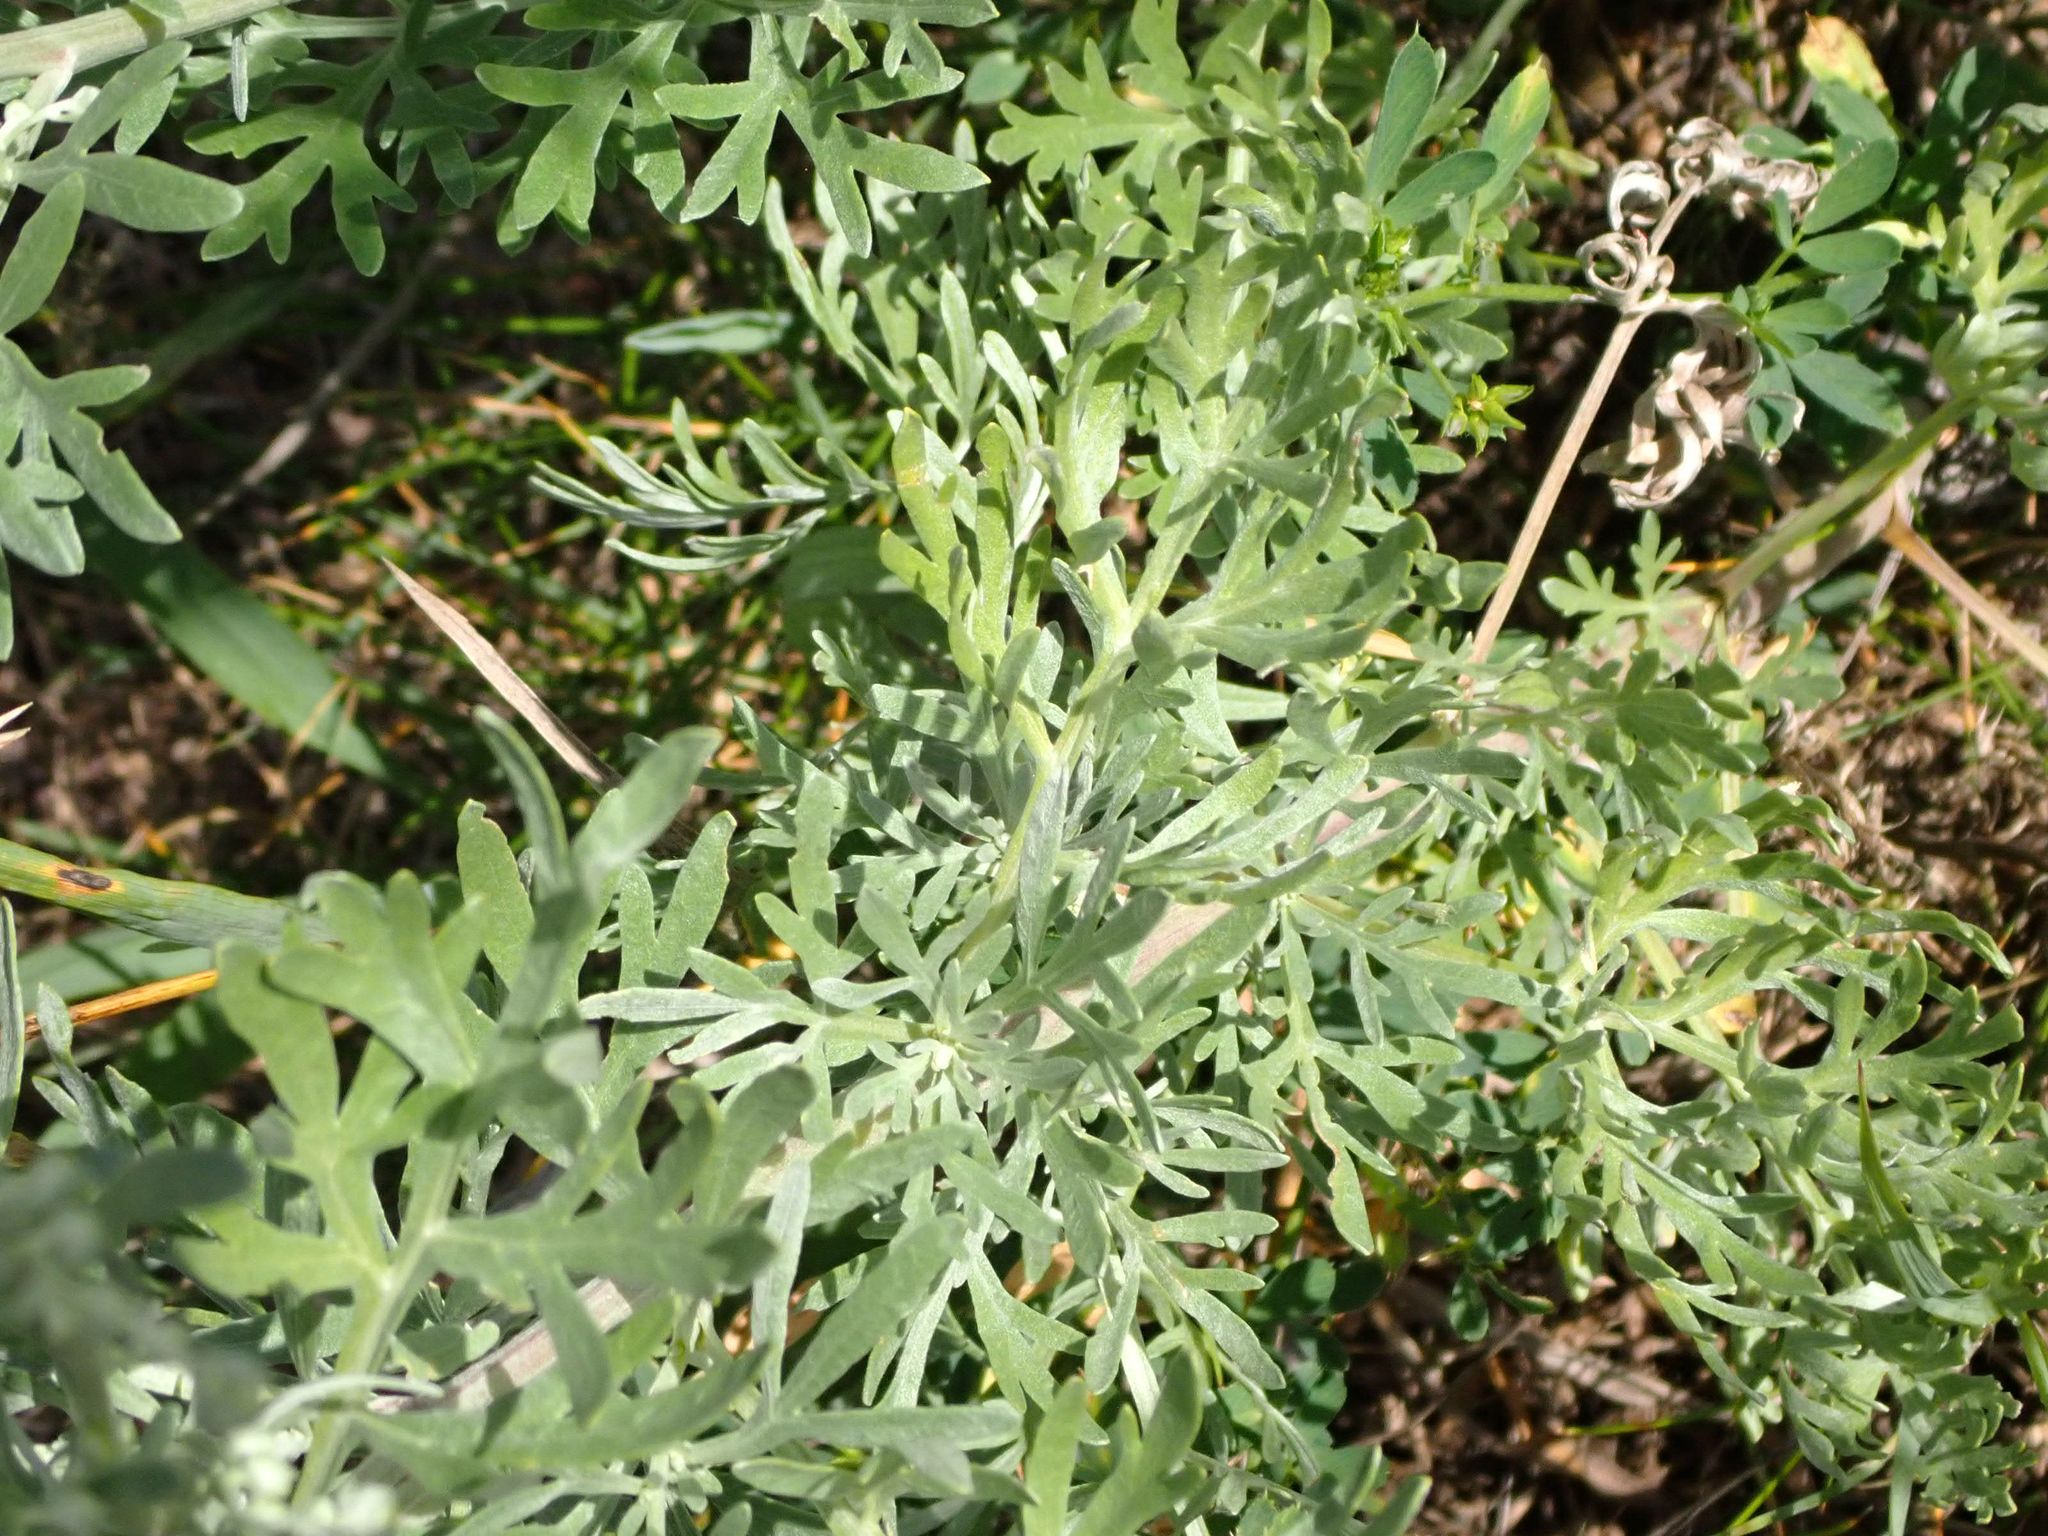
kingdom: Plantae
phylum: Tracheophyta
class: Magnoliopsida
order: Asterales
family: Asteraceae
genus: Artemisia
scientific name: Artemisia absinthium
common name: Wormwood
